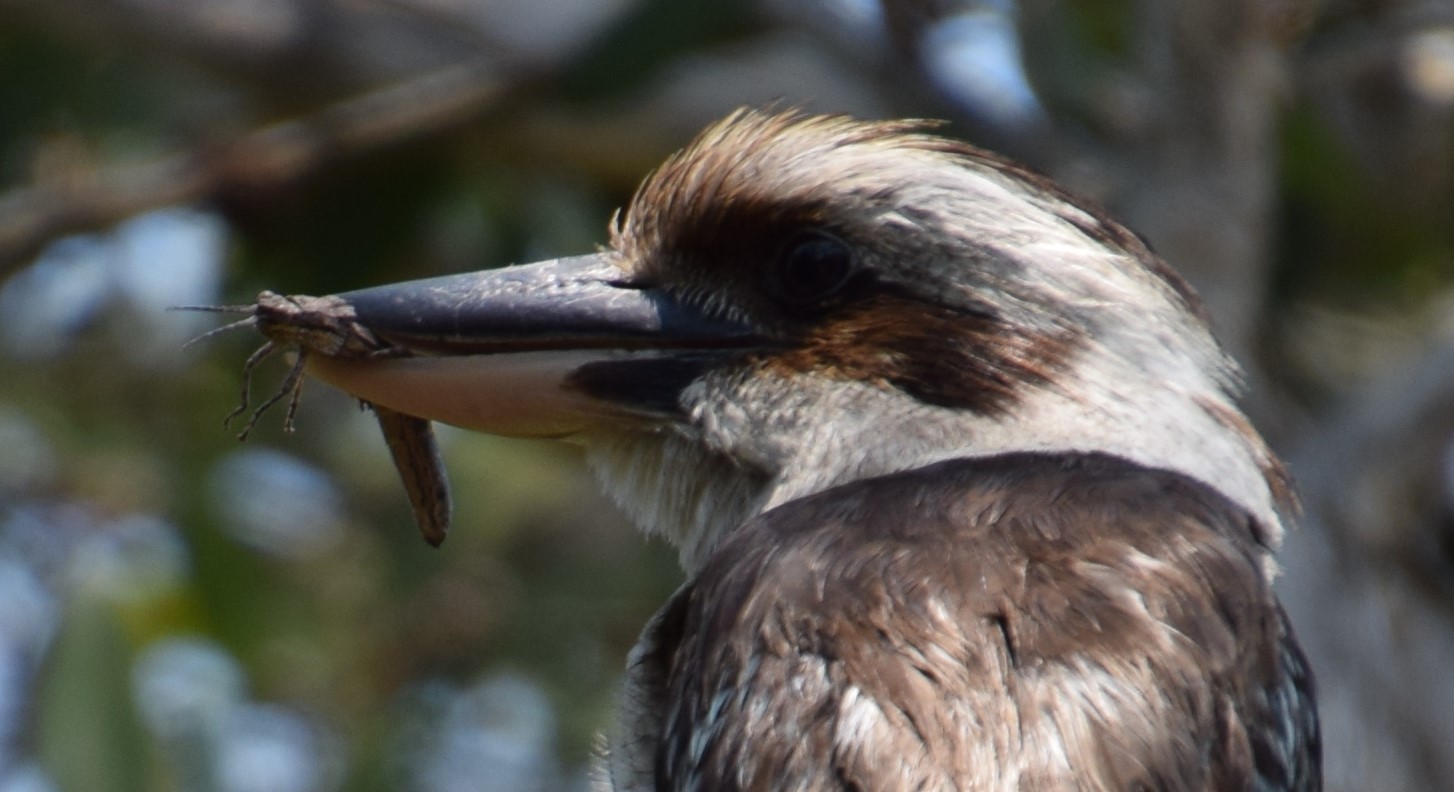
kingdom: Animalia
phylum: Arthropoda
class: Insecta
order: Orthoptera
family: Acrididae
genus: Coryphistes
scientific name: Coryphistes ruricola
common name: Bark-mimicking grasshopper
